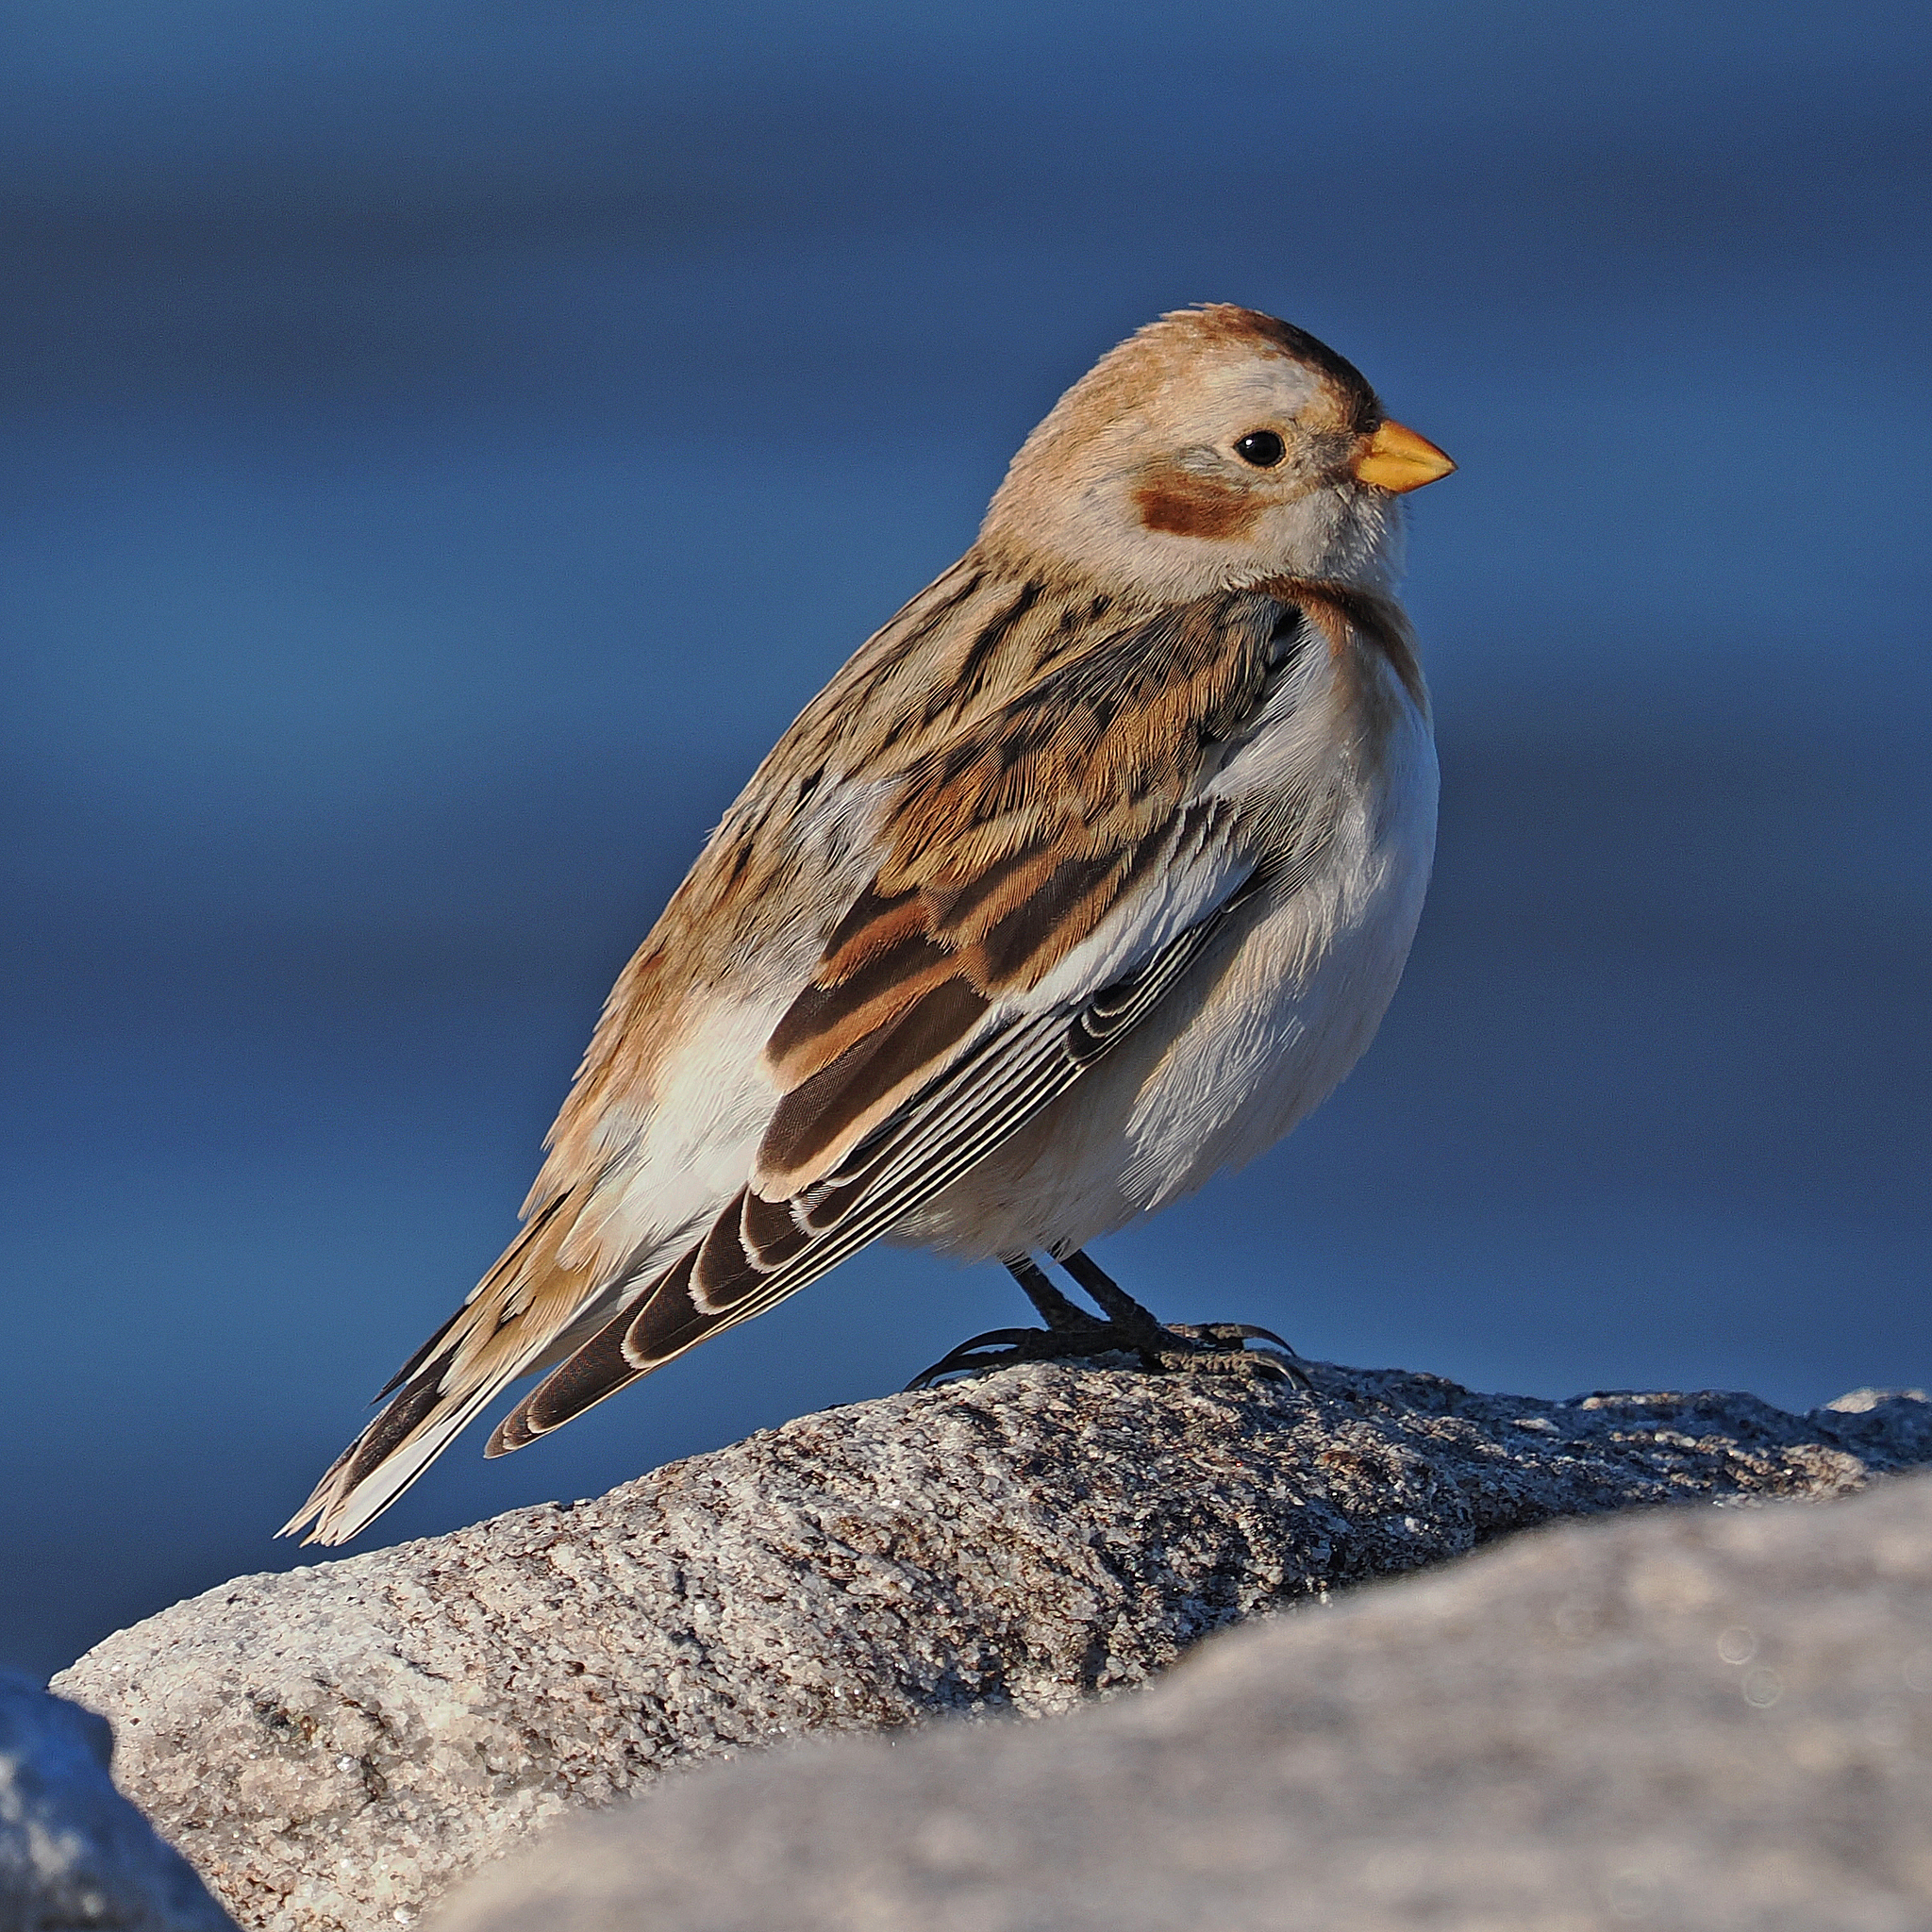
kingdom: Animalia
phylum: Chordata
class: Aves
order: Passeriformes
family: Calcariidae
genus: Plectrophenax
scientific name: Plectrophenax nivalis
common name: Snow bunting
